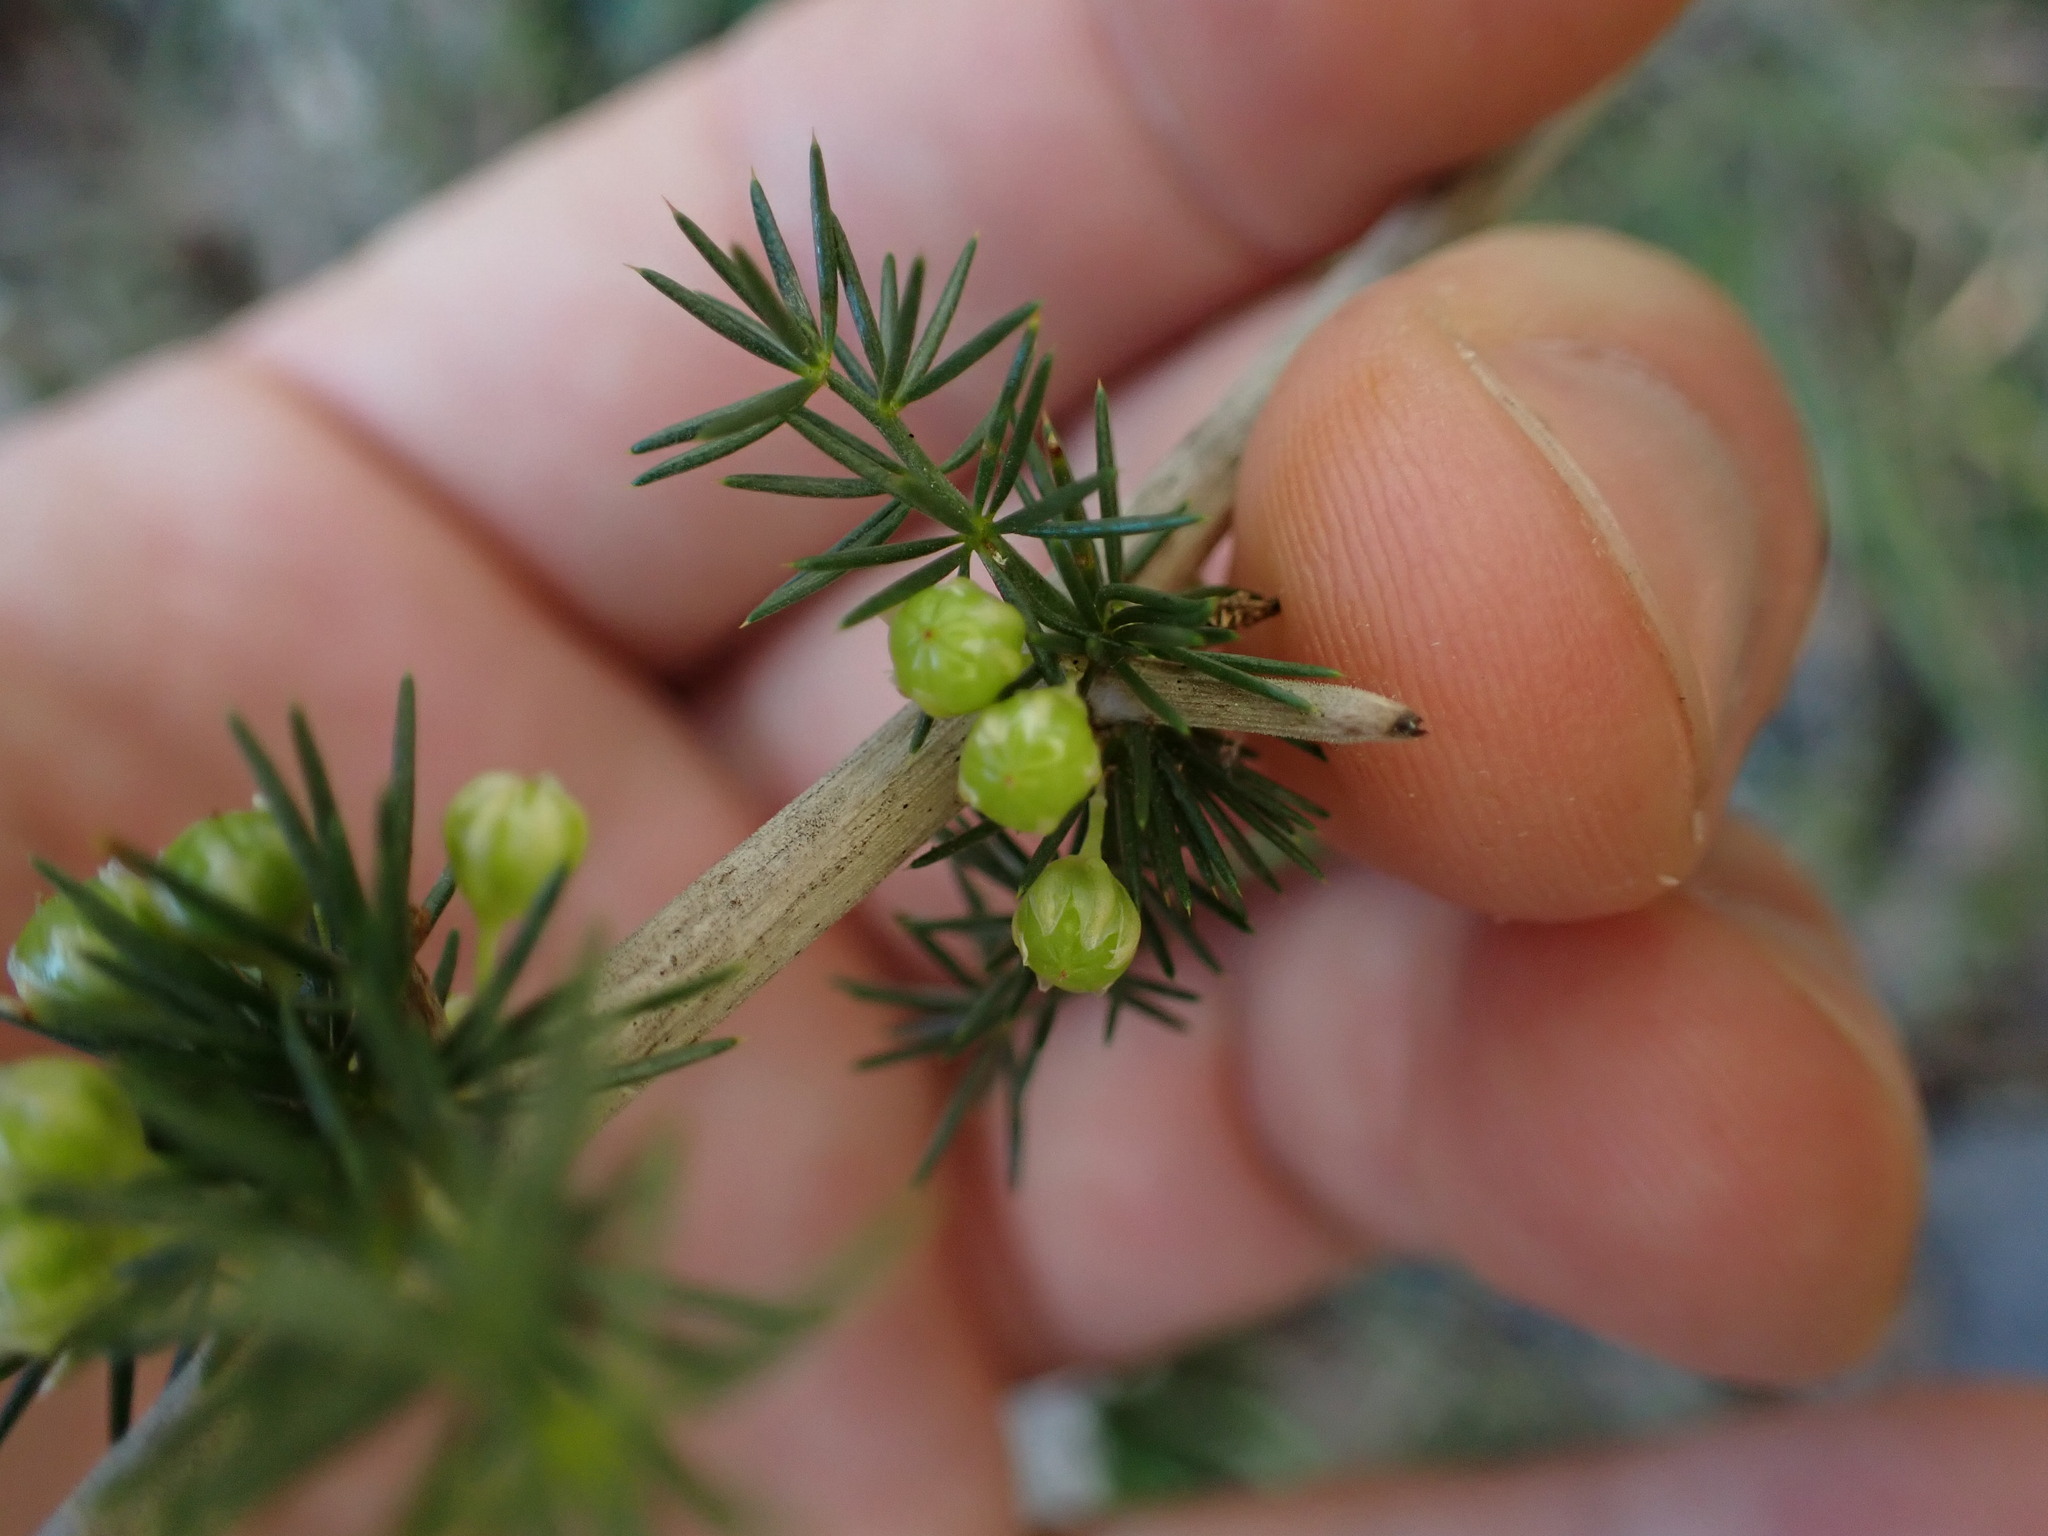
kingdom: Plantae
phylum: Tracheophyta
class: Liliopsida
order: Asparagales
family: Asparagaceae
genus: Asparagus
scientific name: Asparagus acutifolius
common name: Wild asparagus
